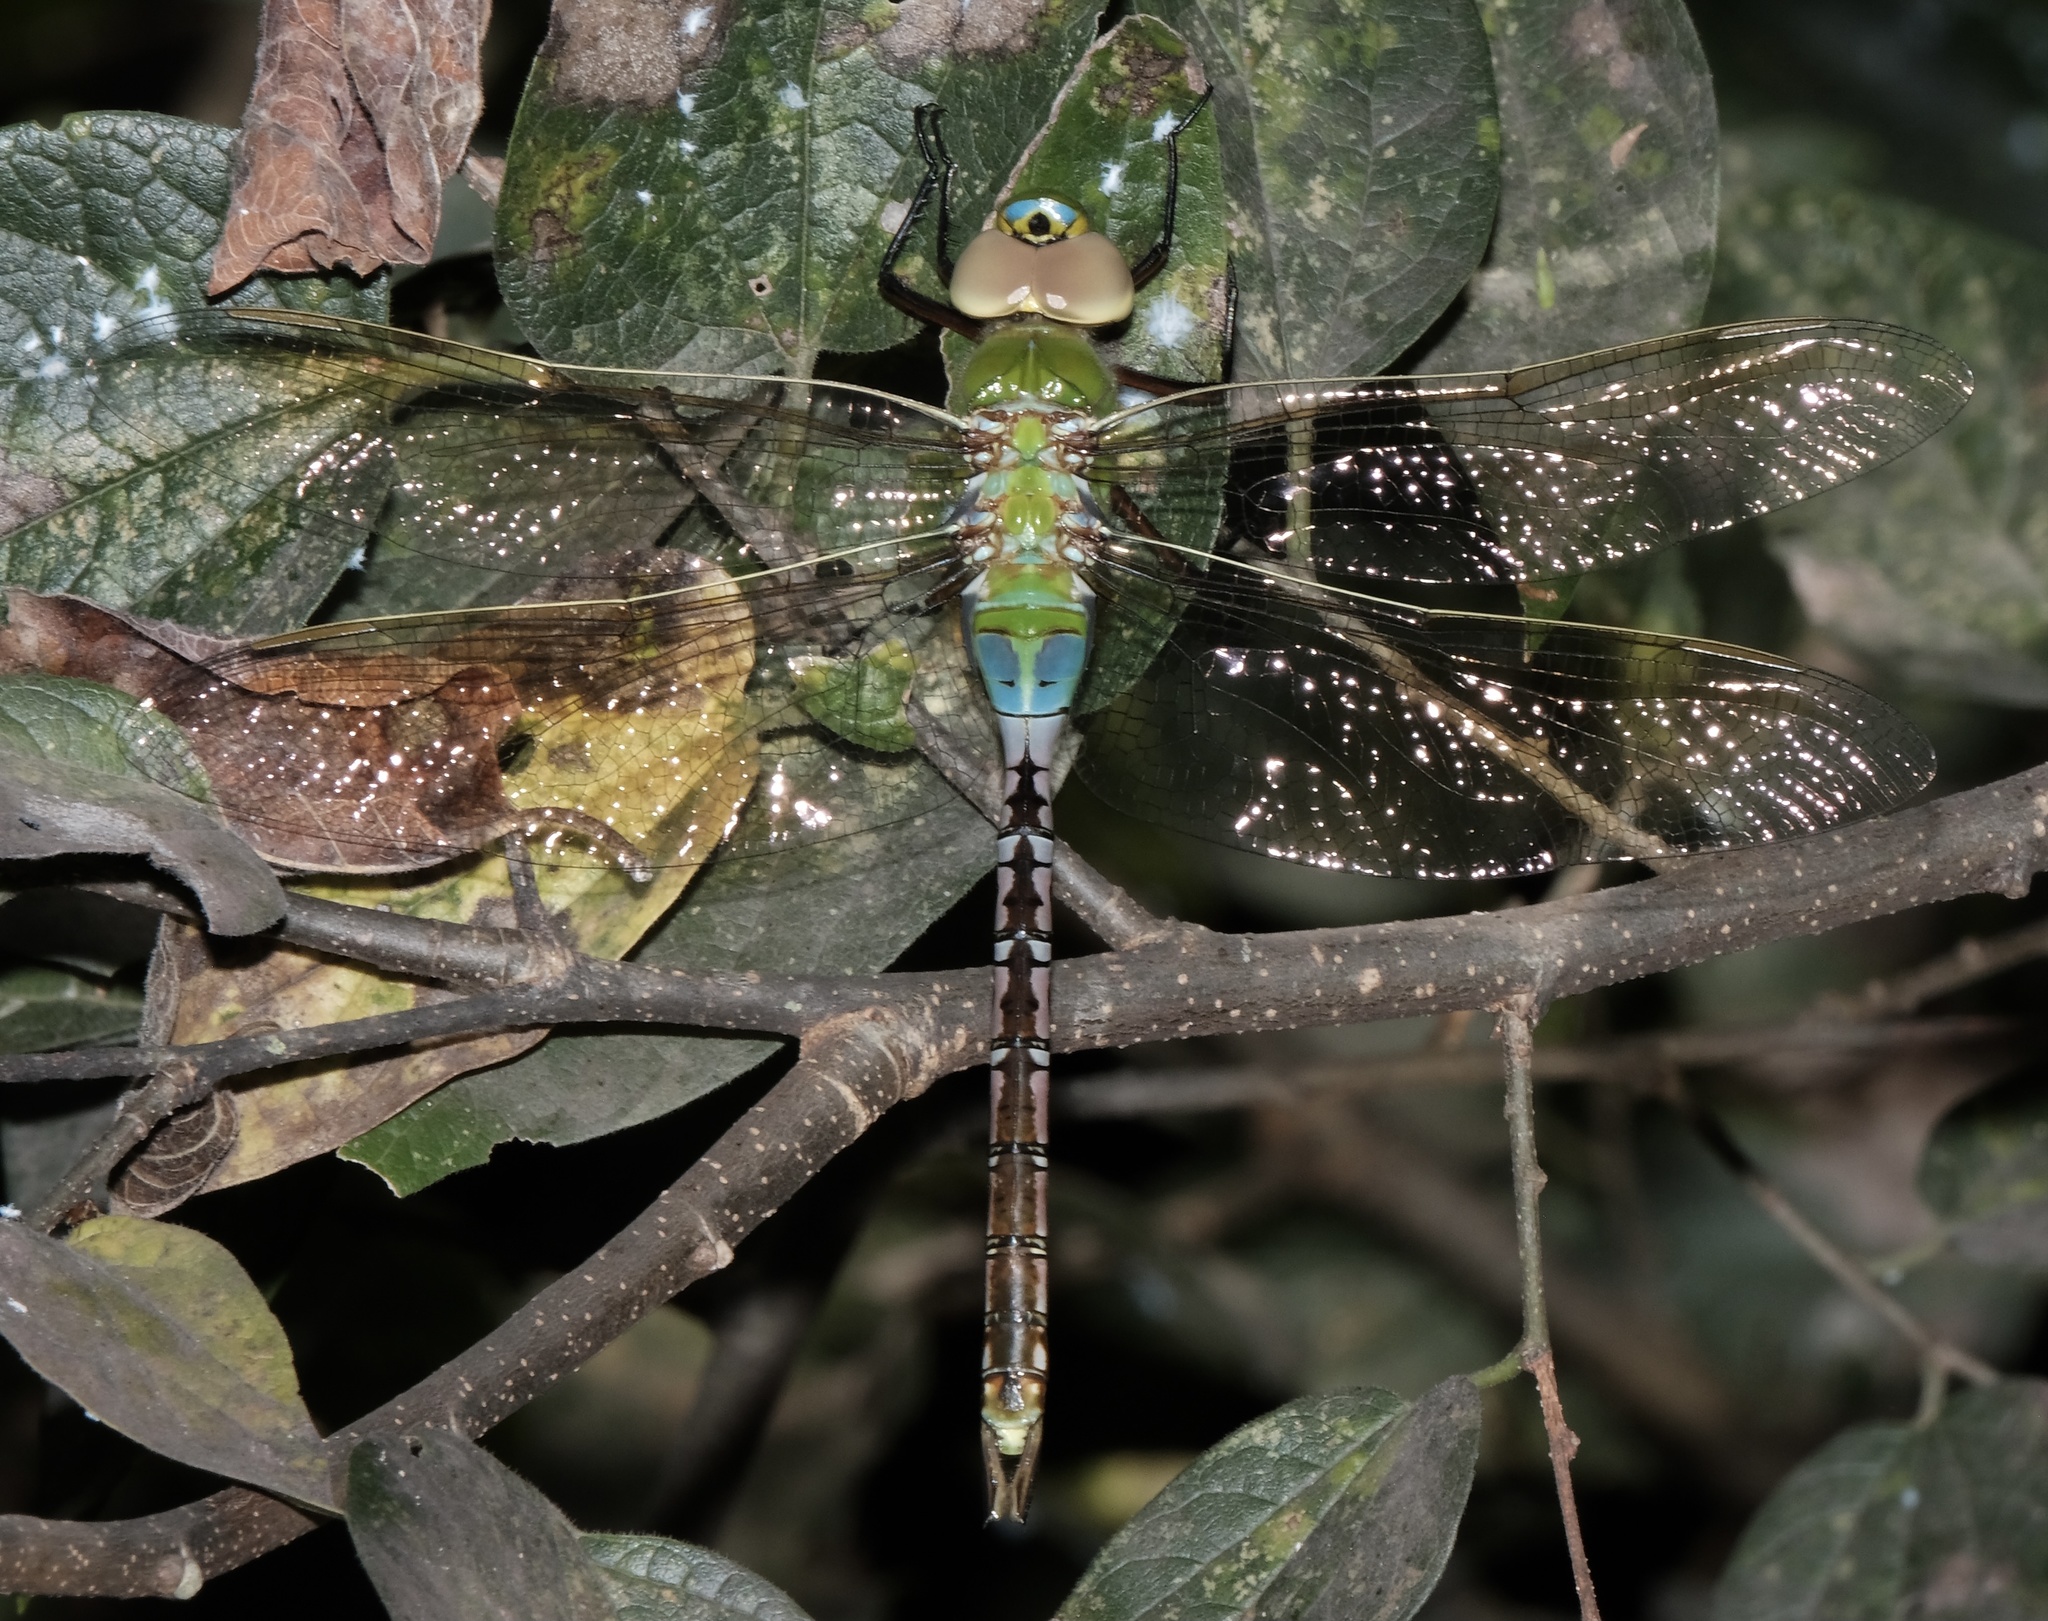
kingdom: Animalia
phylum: Arthropoda
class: Insecta
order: Odonata
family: Aeshnidae
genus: Anax
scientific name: Anax junius
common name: Common green darner
